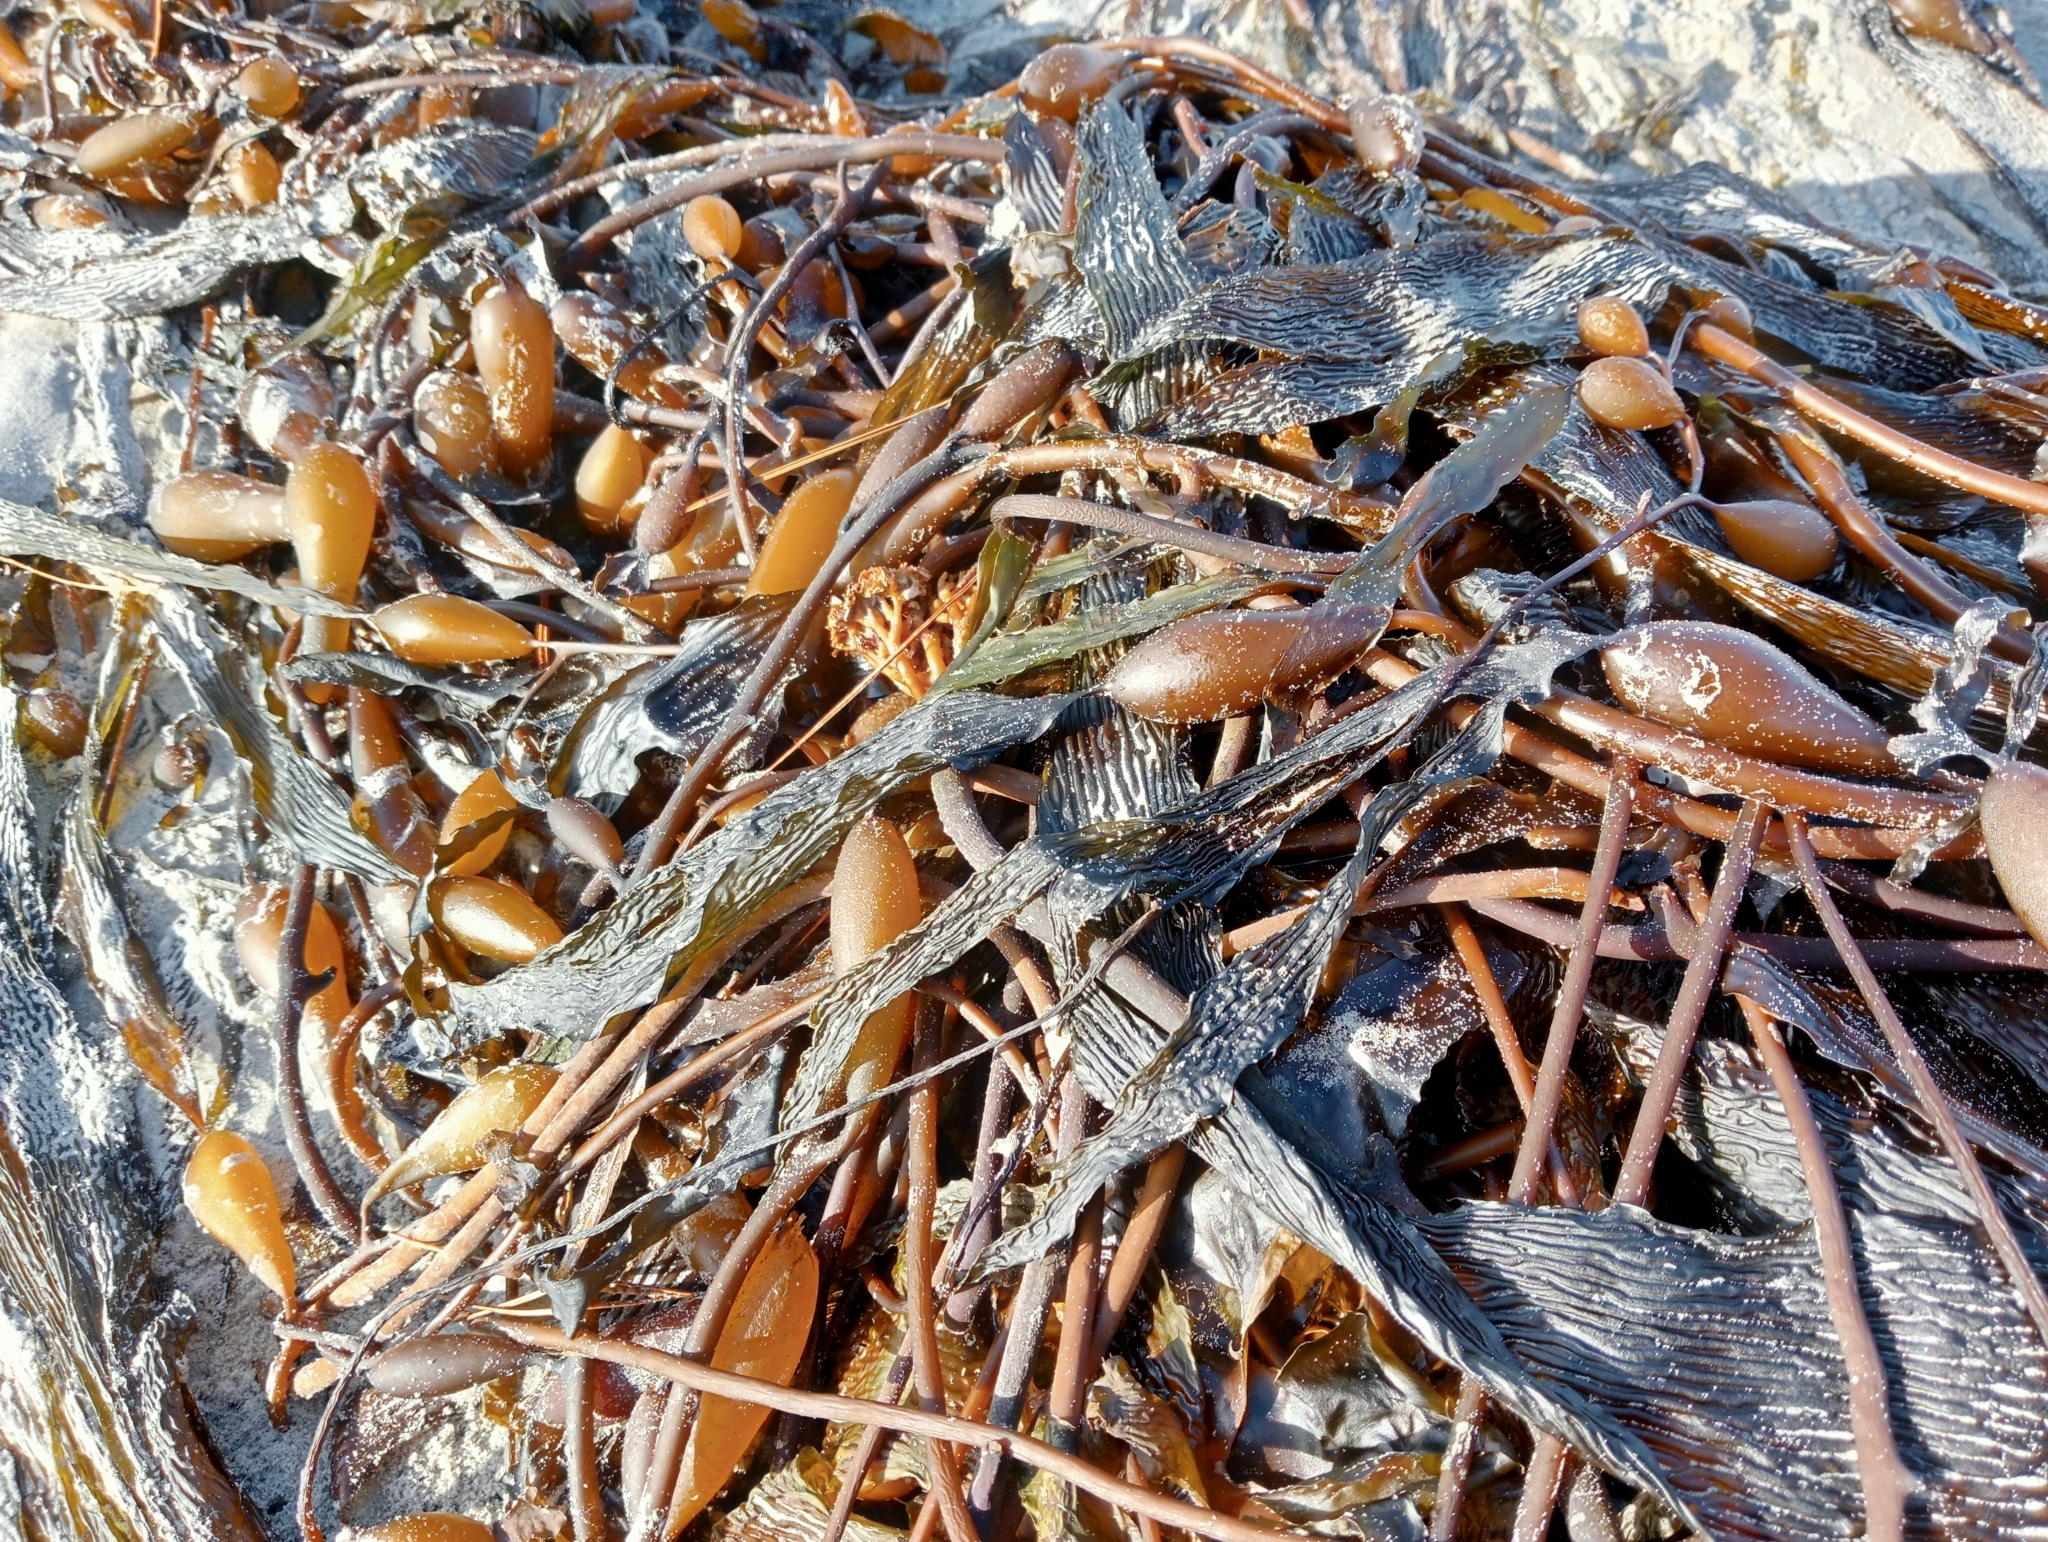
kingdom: Chromista
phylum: Ochrophyta
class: Phaeophyceae
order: Laminariales
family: Laminariaceae
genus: Macrocystis
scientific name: Macrocystis pyrifera
